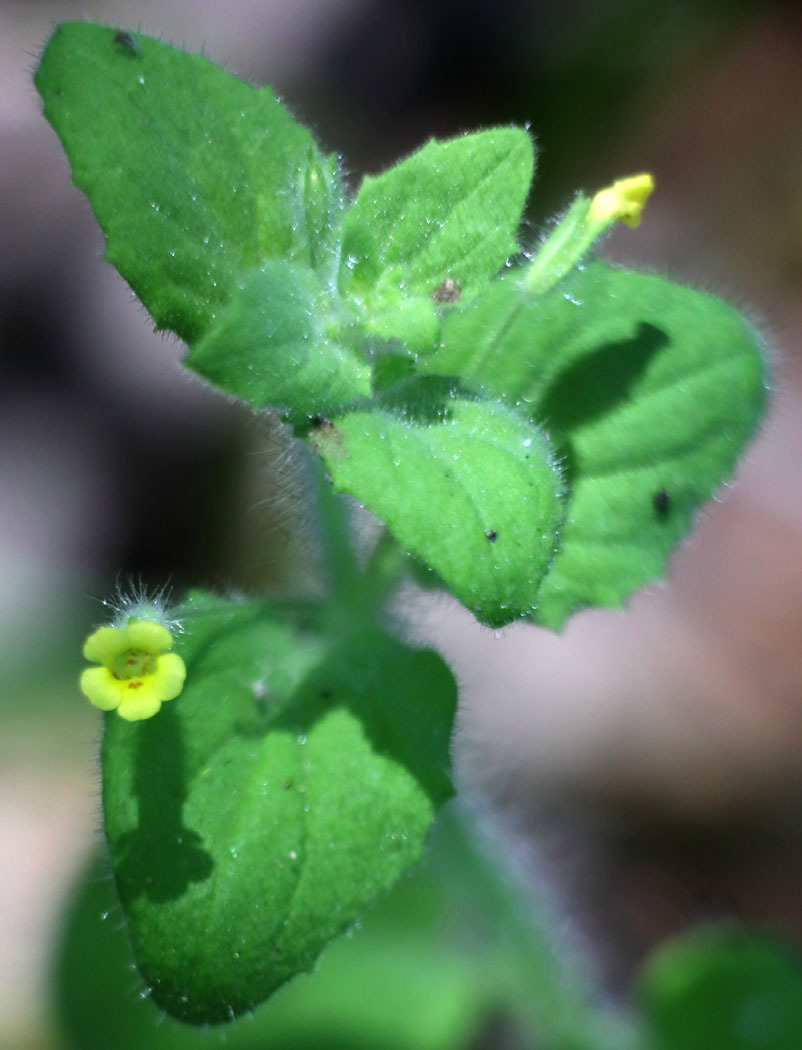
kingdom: Plantae
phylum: Tracheophyta
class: Magnoliopsida
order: Lamiales
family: Phrymaceae
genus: Erythranthe
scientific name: Erythranthe floribunda
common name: Floriferous monkeyflower
